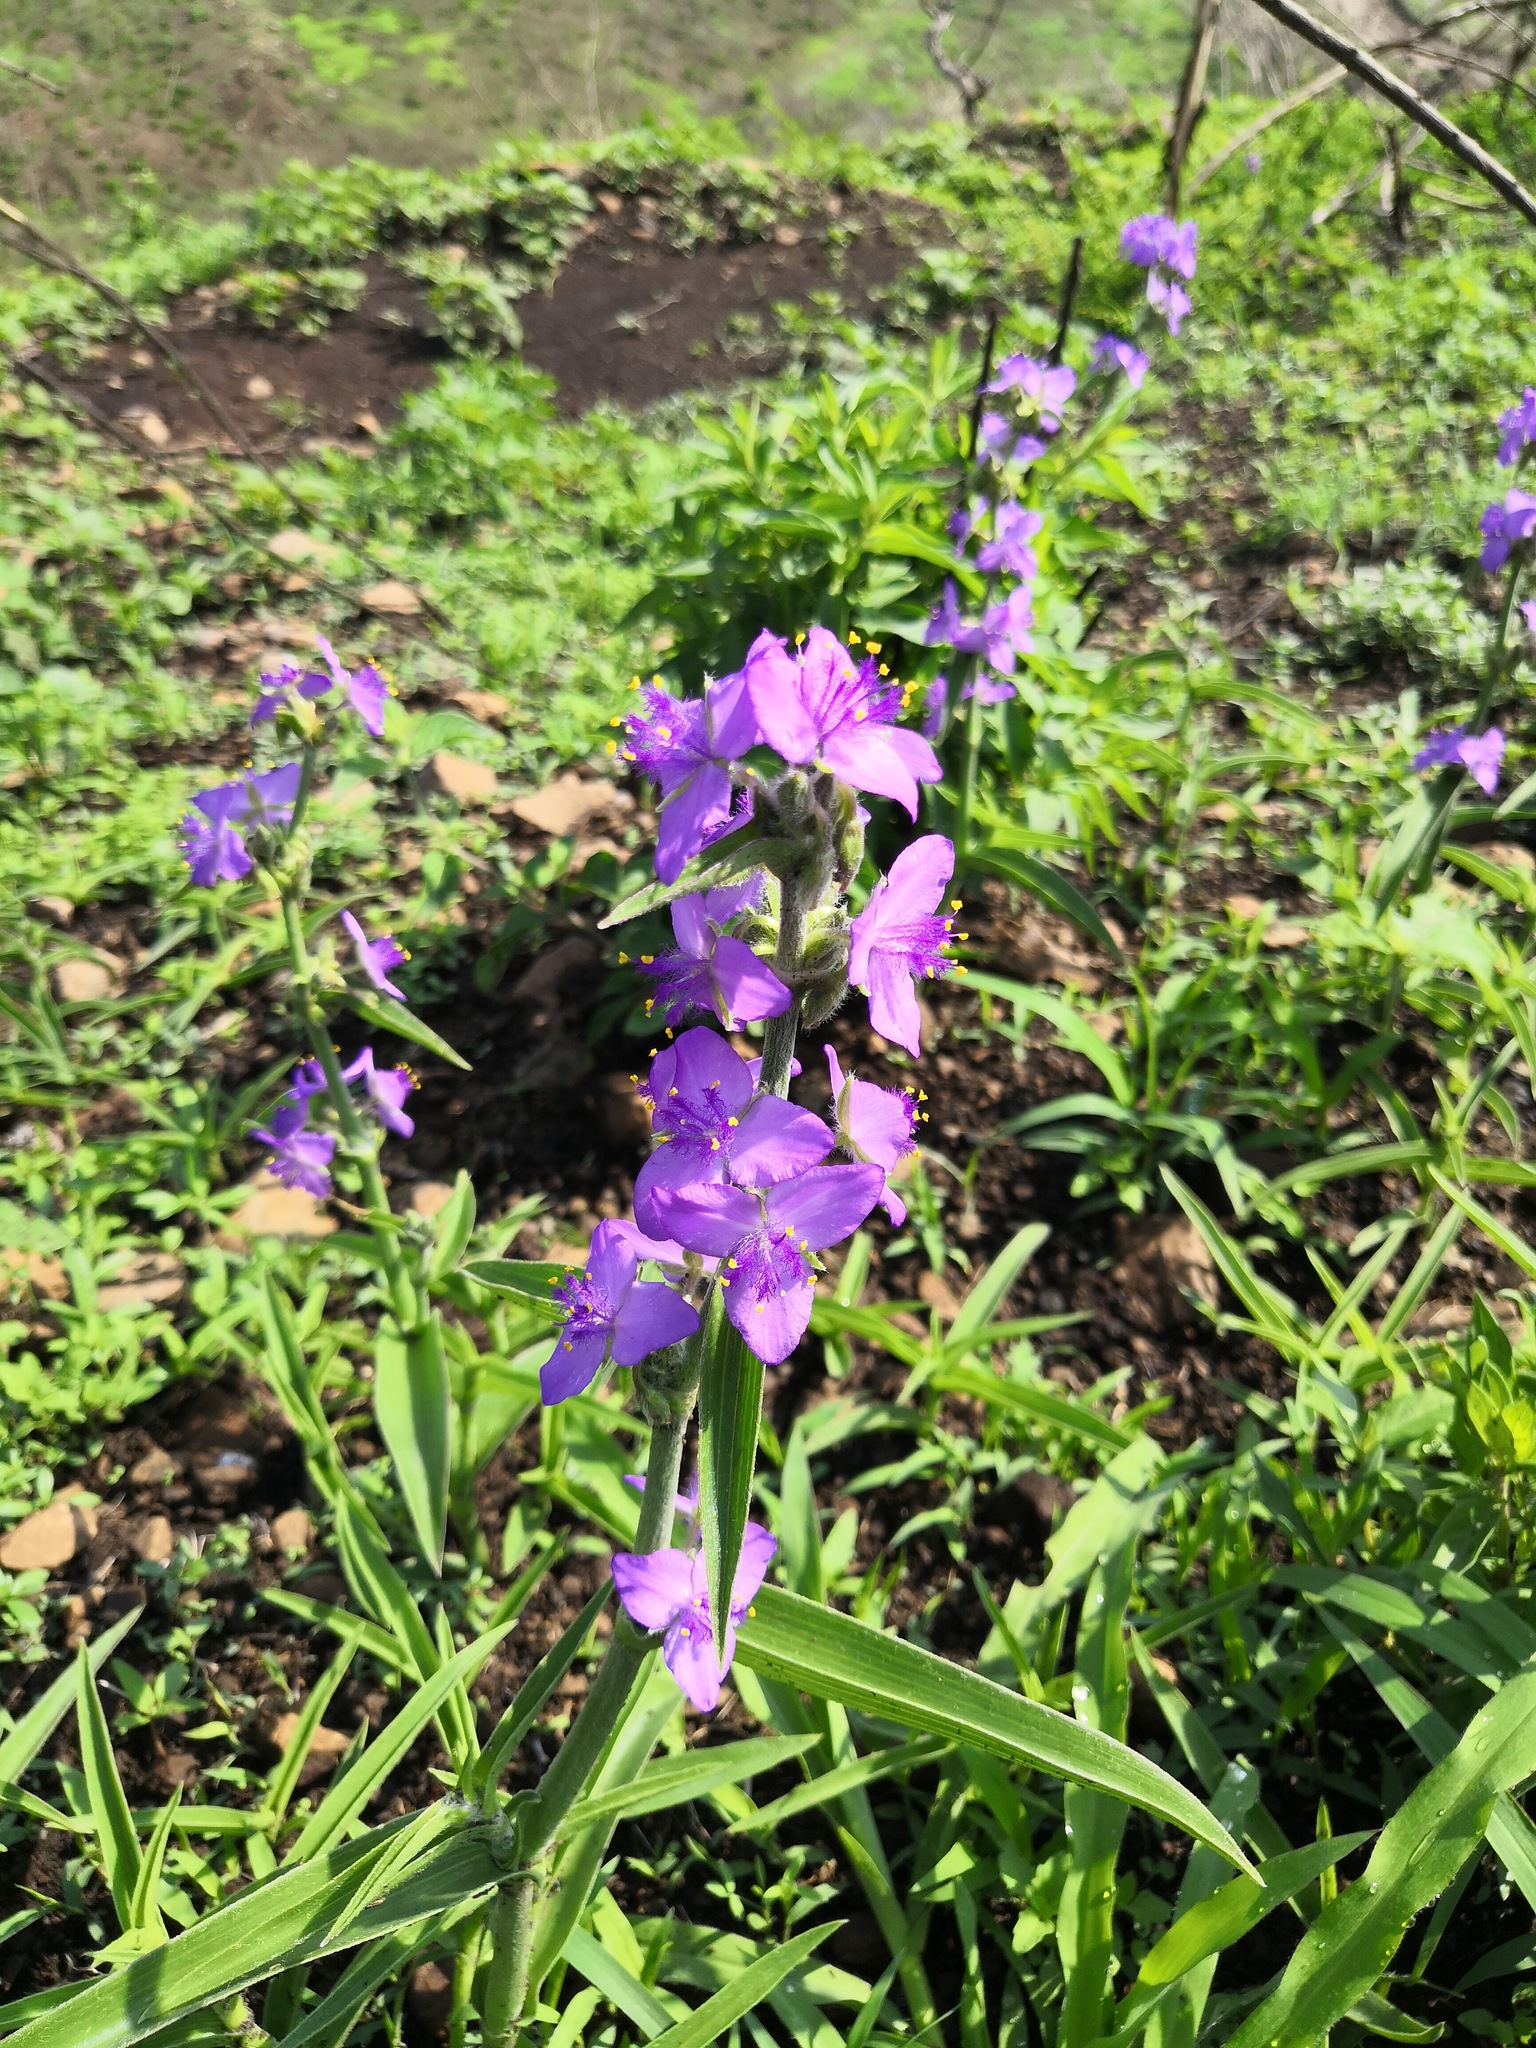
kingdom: Plantae
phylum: Tracheophyta
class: Liliopsida
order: Commelinales
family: Commelinaceae
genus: Tradescantia
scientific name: Tradescantia crassifolia
